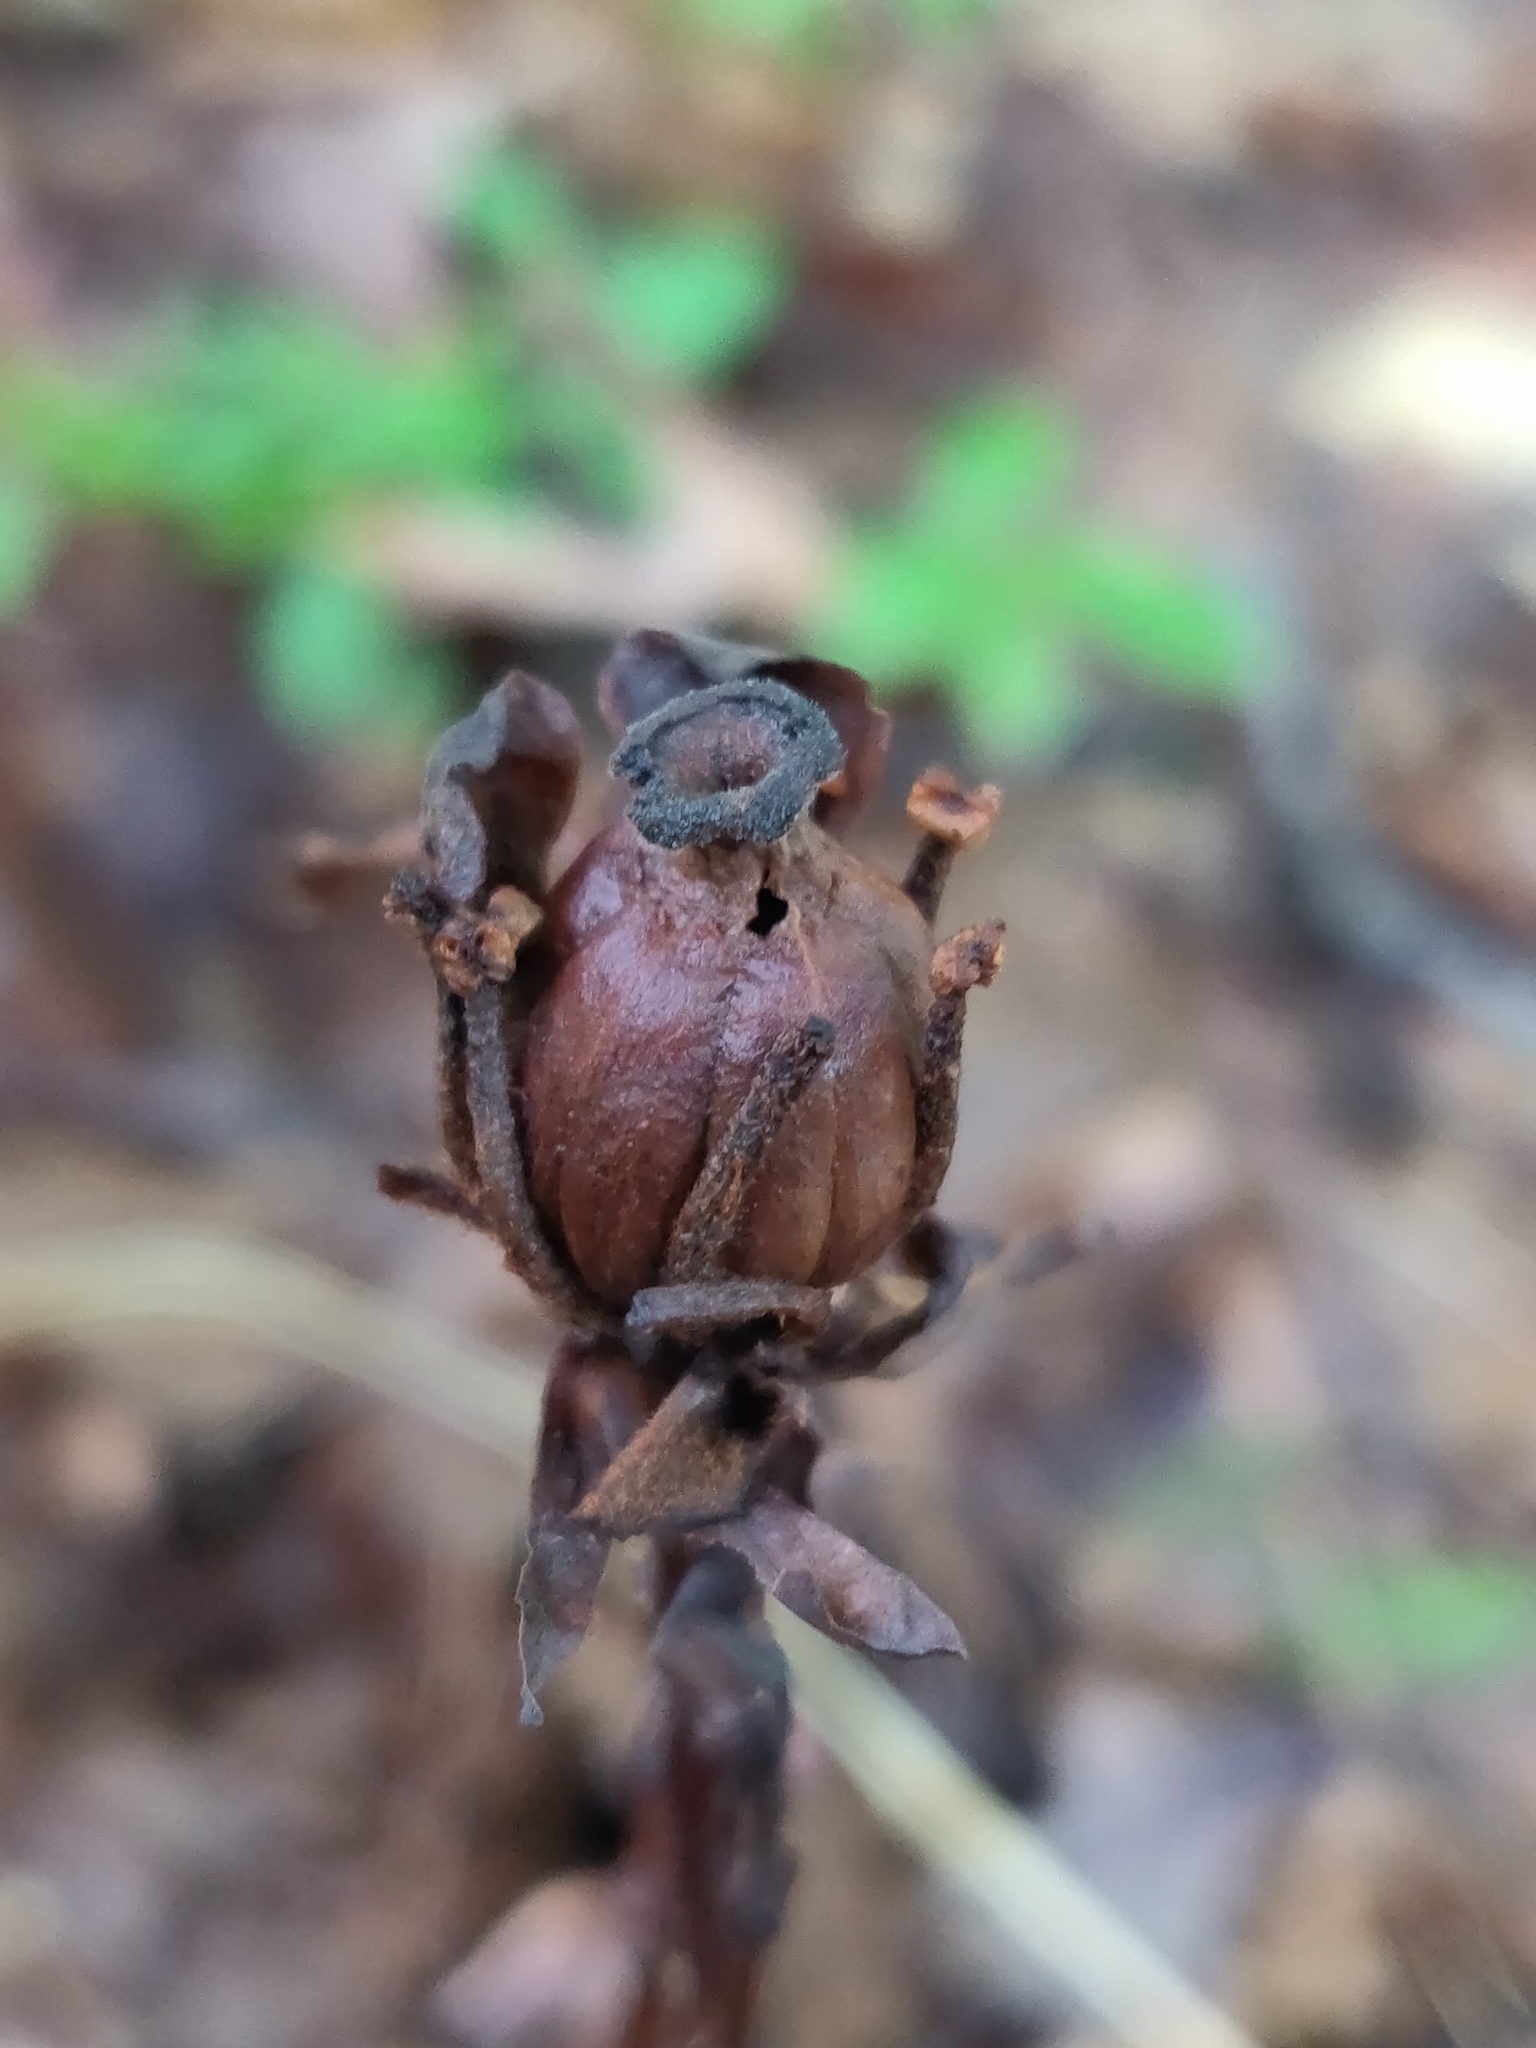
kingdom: Plantae
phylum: Tracheophyta
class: Magnoliopsida
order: Ericales
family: Ericaceae
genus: Monotropa
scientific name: Monotropa uniflora
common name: Convulsion root
